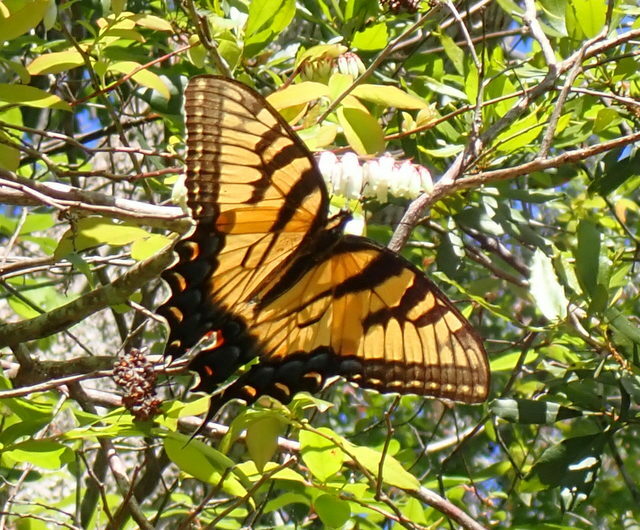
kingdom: Animalia
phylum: Arthropoda
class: Insecta
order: Lepidoptera
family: Papilionidae
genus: Papilio
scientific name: Papilio glaucus
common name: Tiger swallowtail
